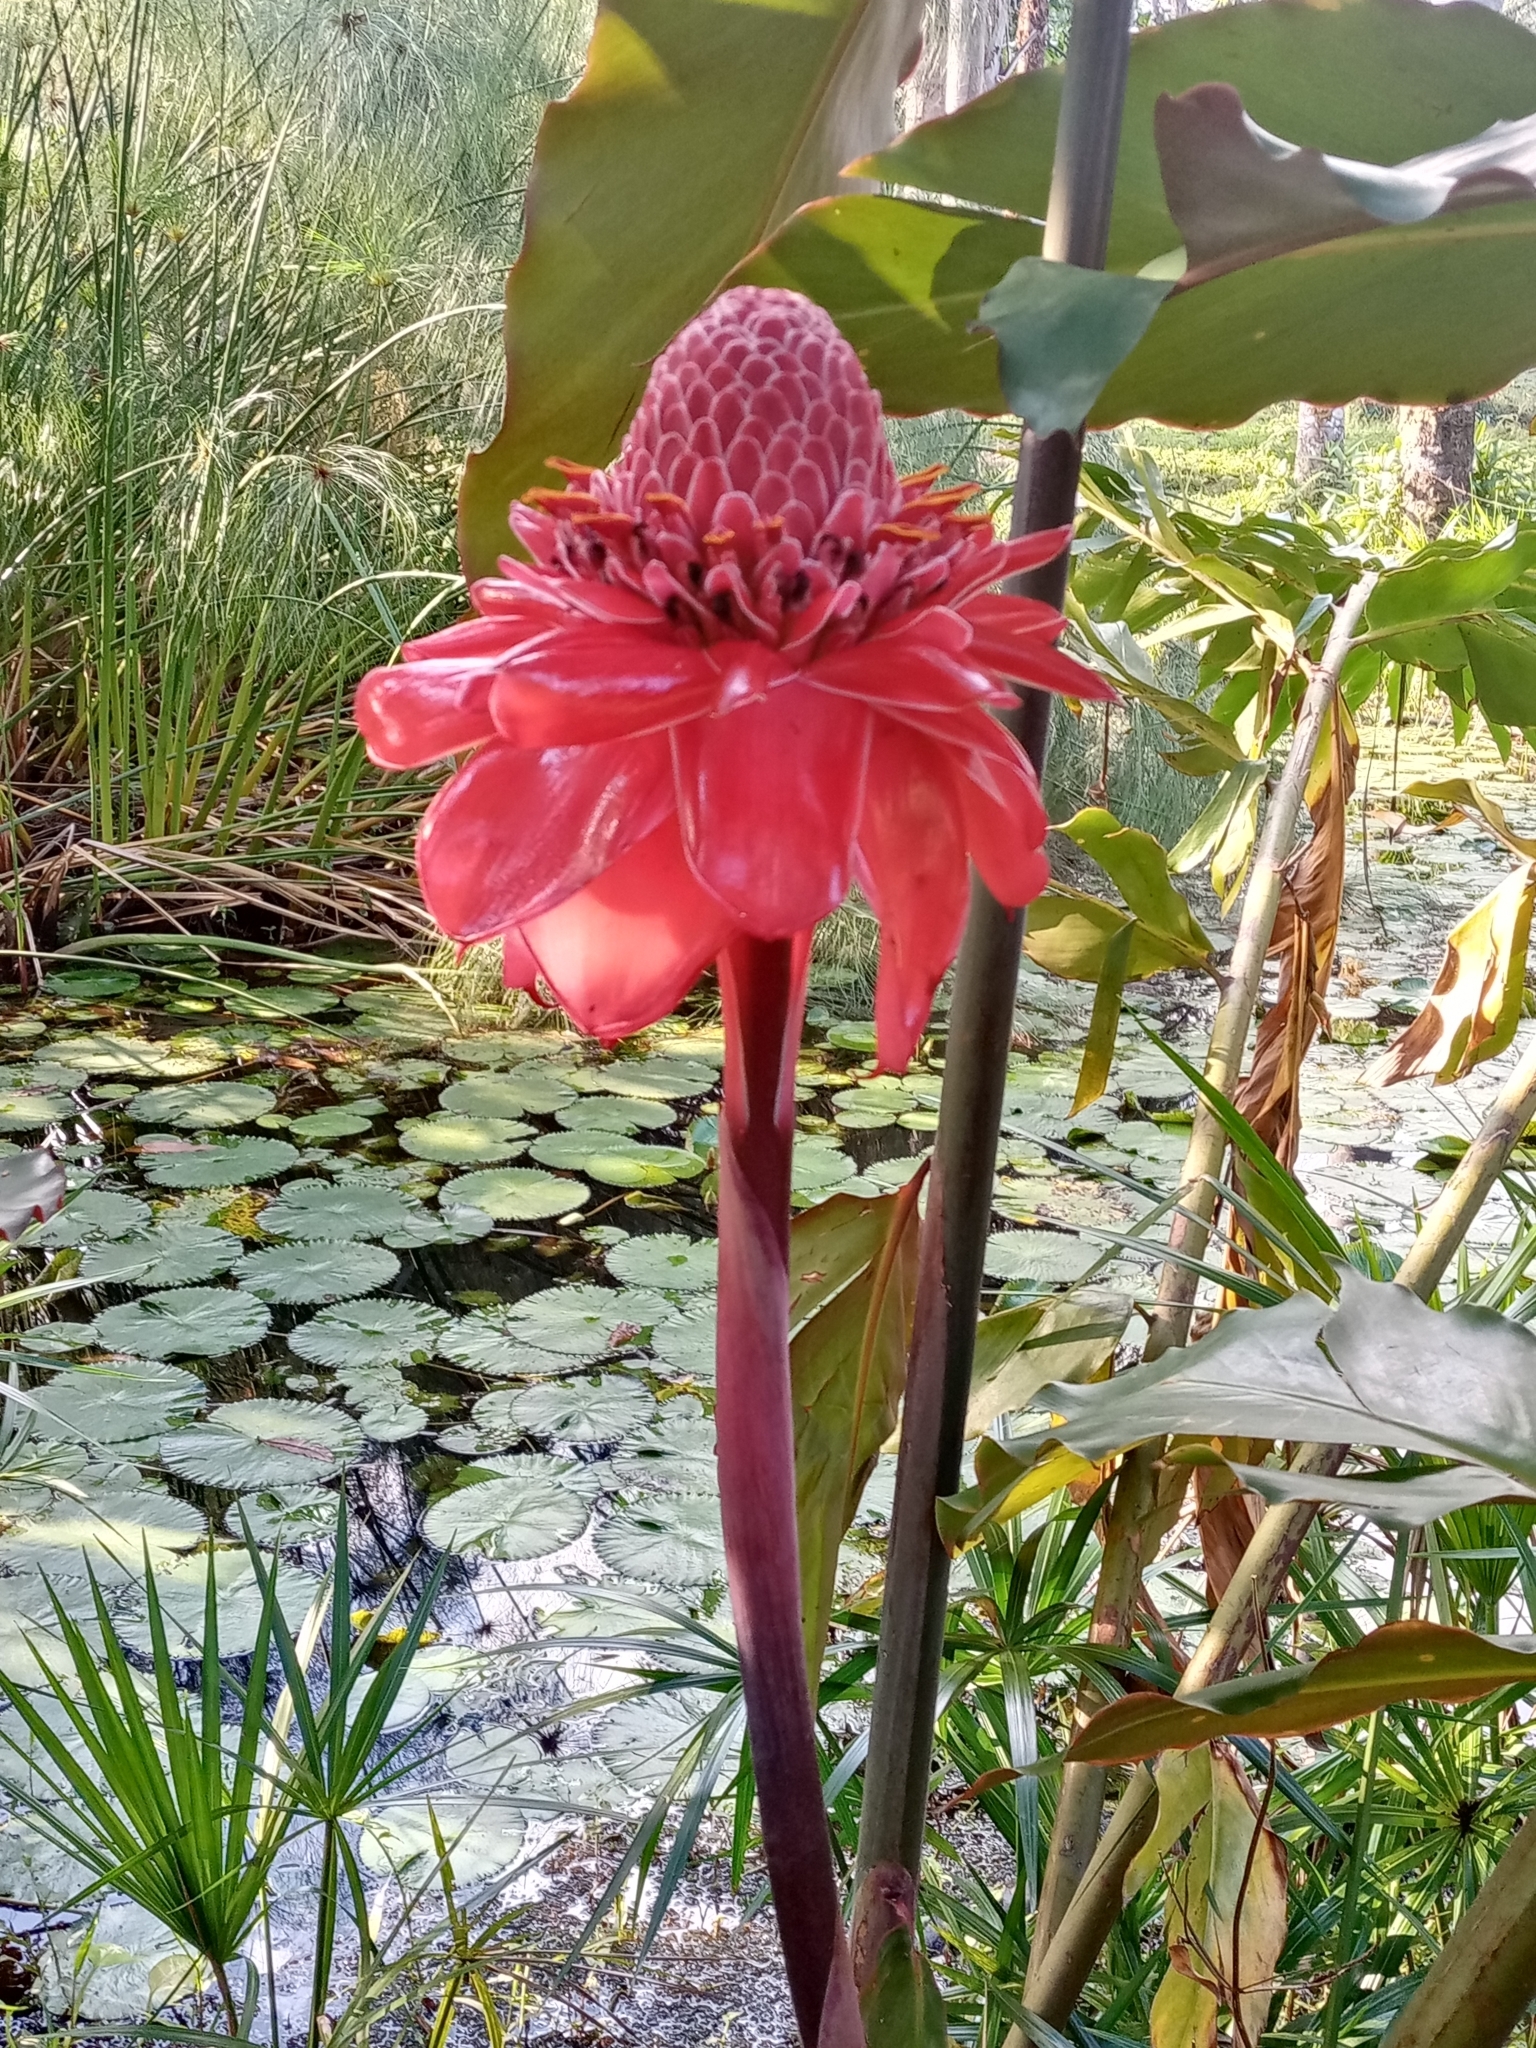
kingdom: Plantae
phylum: Tracheophyta
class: Liliopsida
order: Zingiberales
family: Zingiberaceae
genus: Etlingera
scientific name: Etlingera elatior
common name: Philippine waxflower
